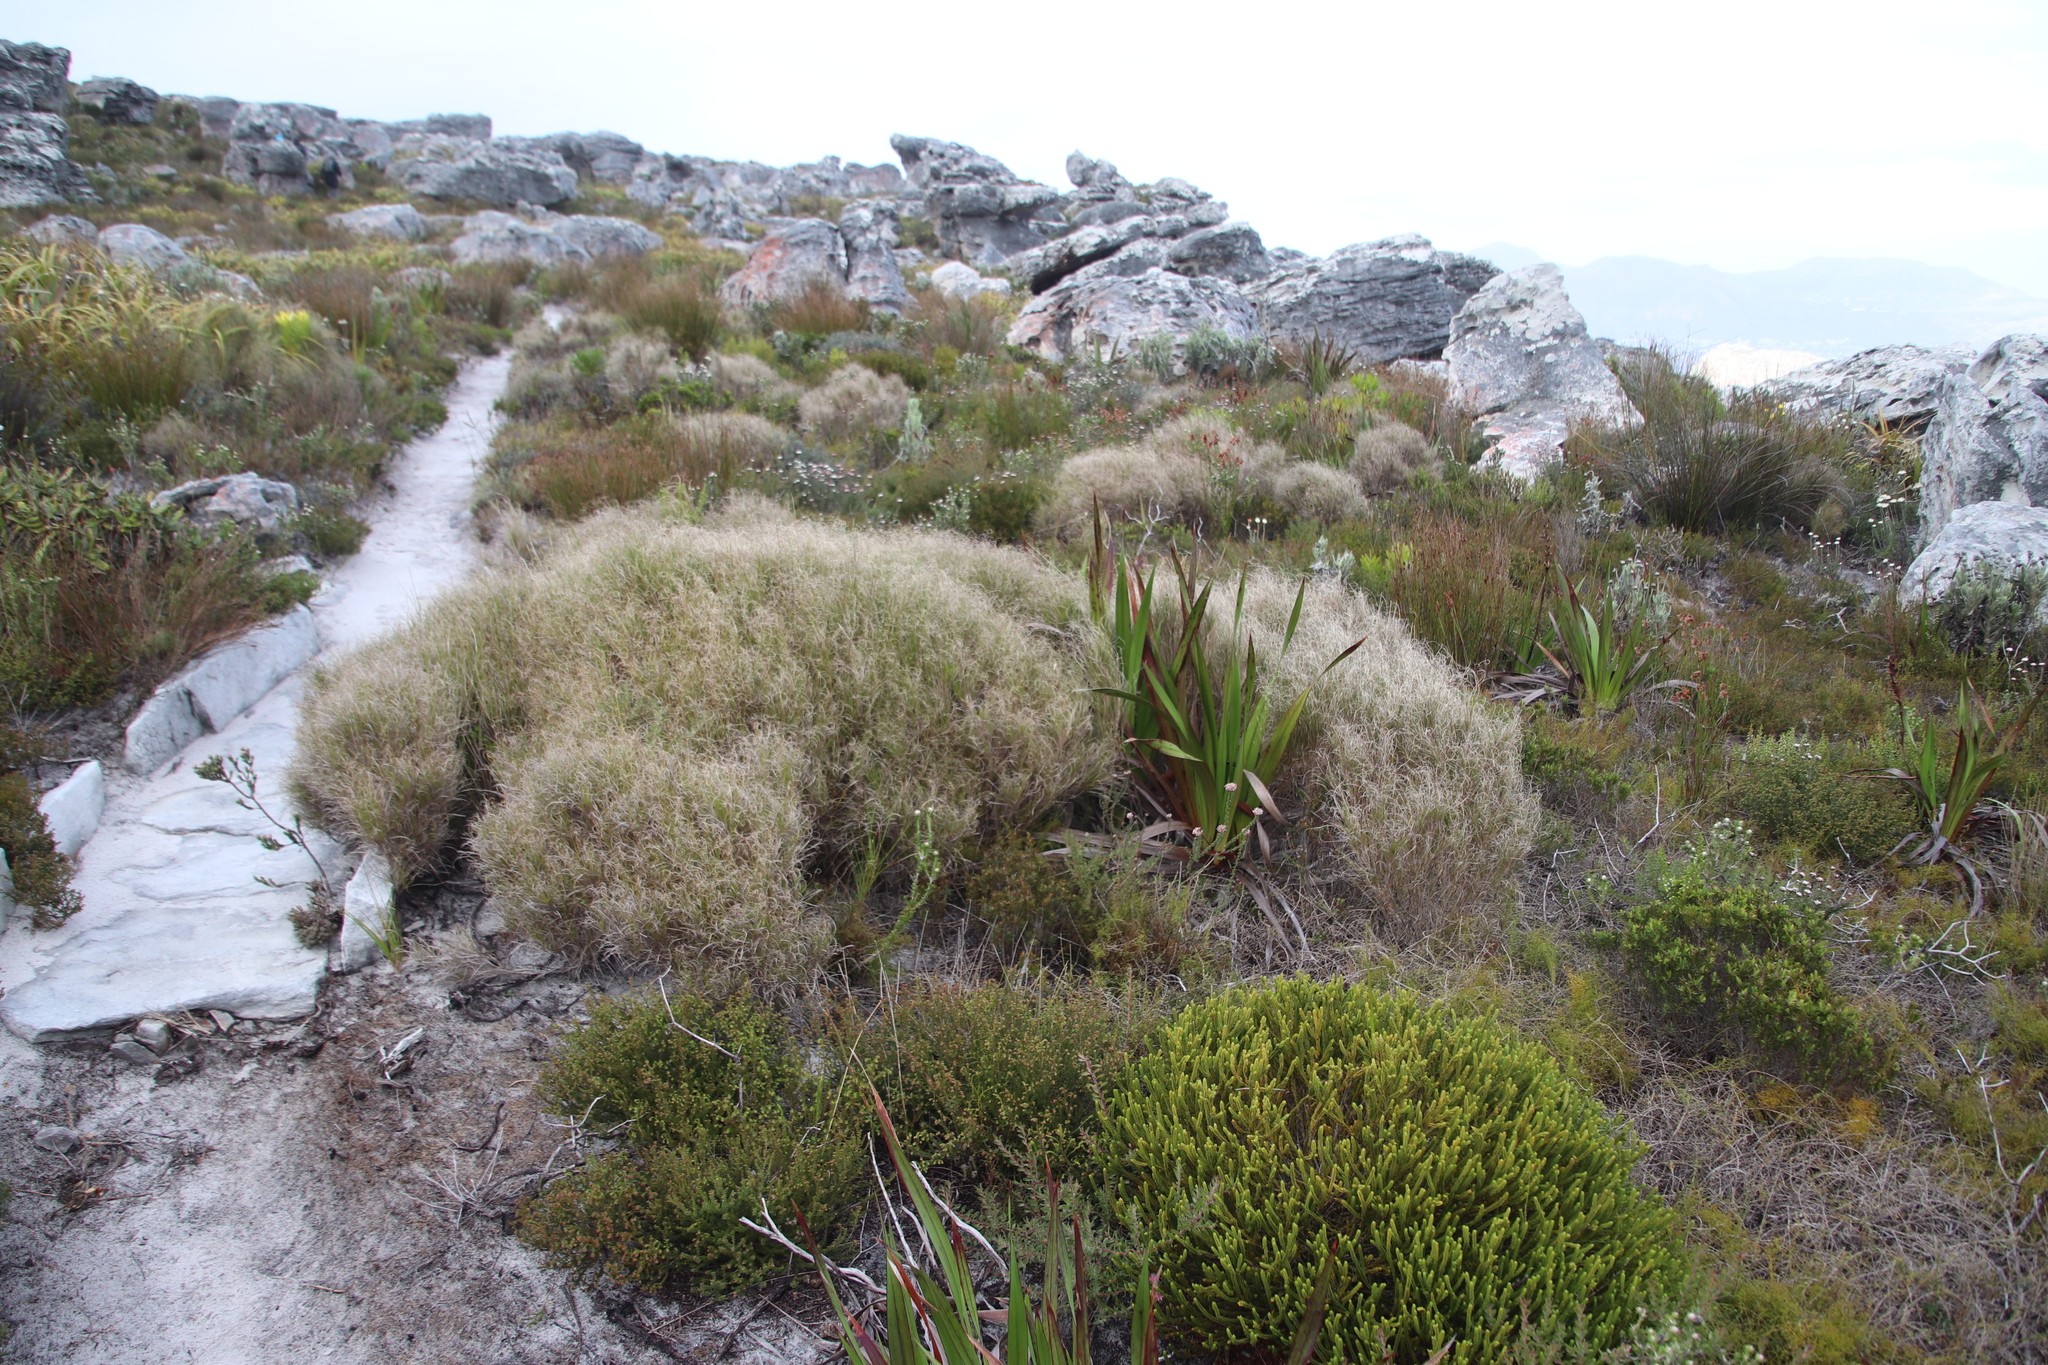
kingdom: Plantae
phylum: Tracheophyta
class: Liliopsida
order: Poales
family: Poaceae
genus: Pseudopentameris
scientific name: Pseudopentameris macrantha
